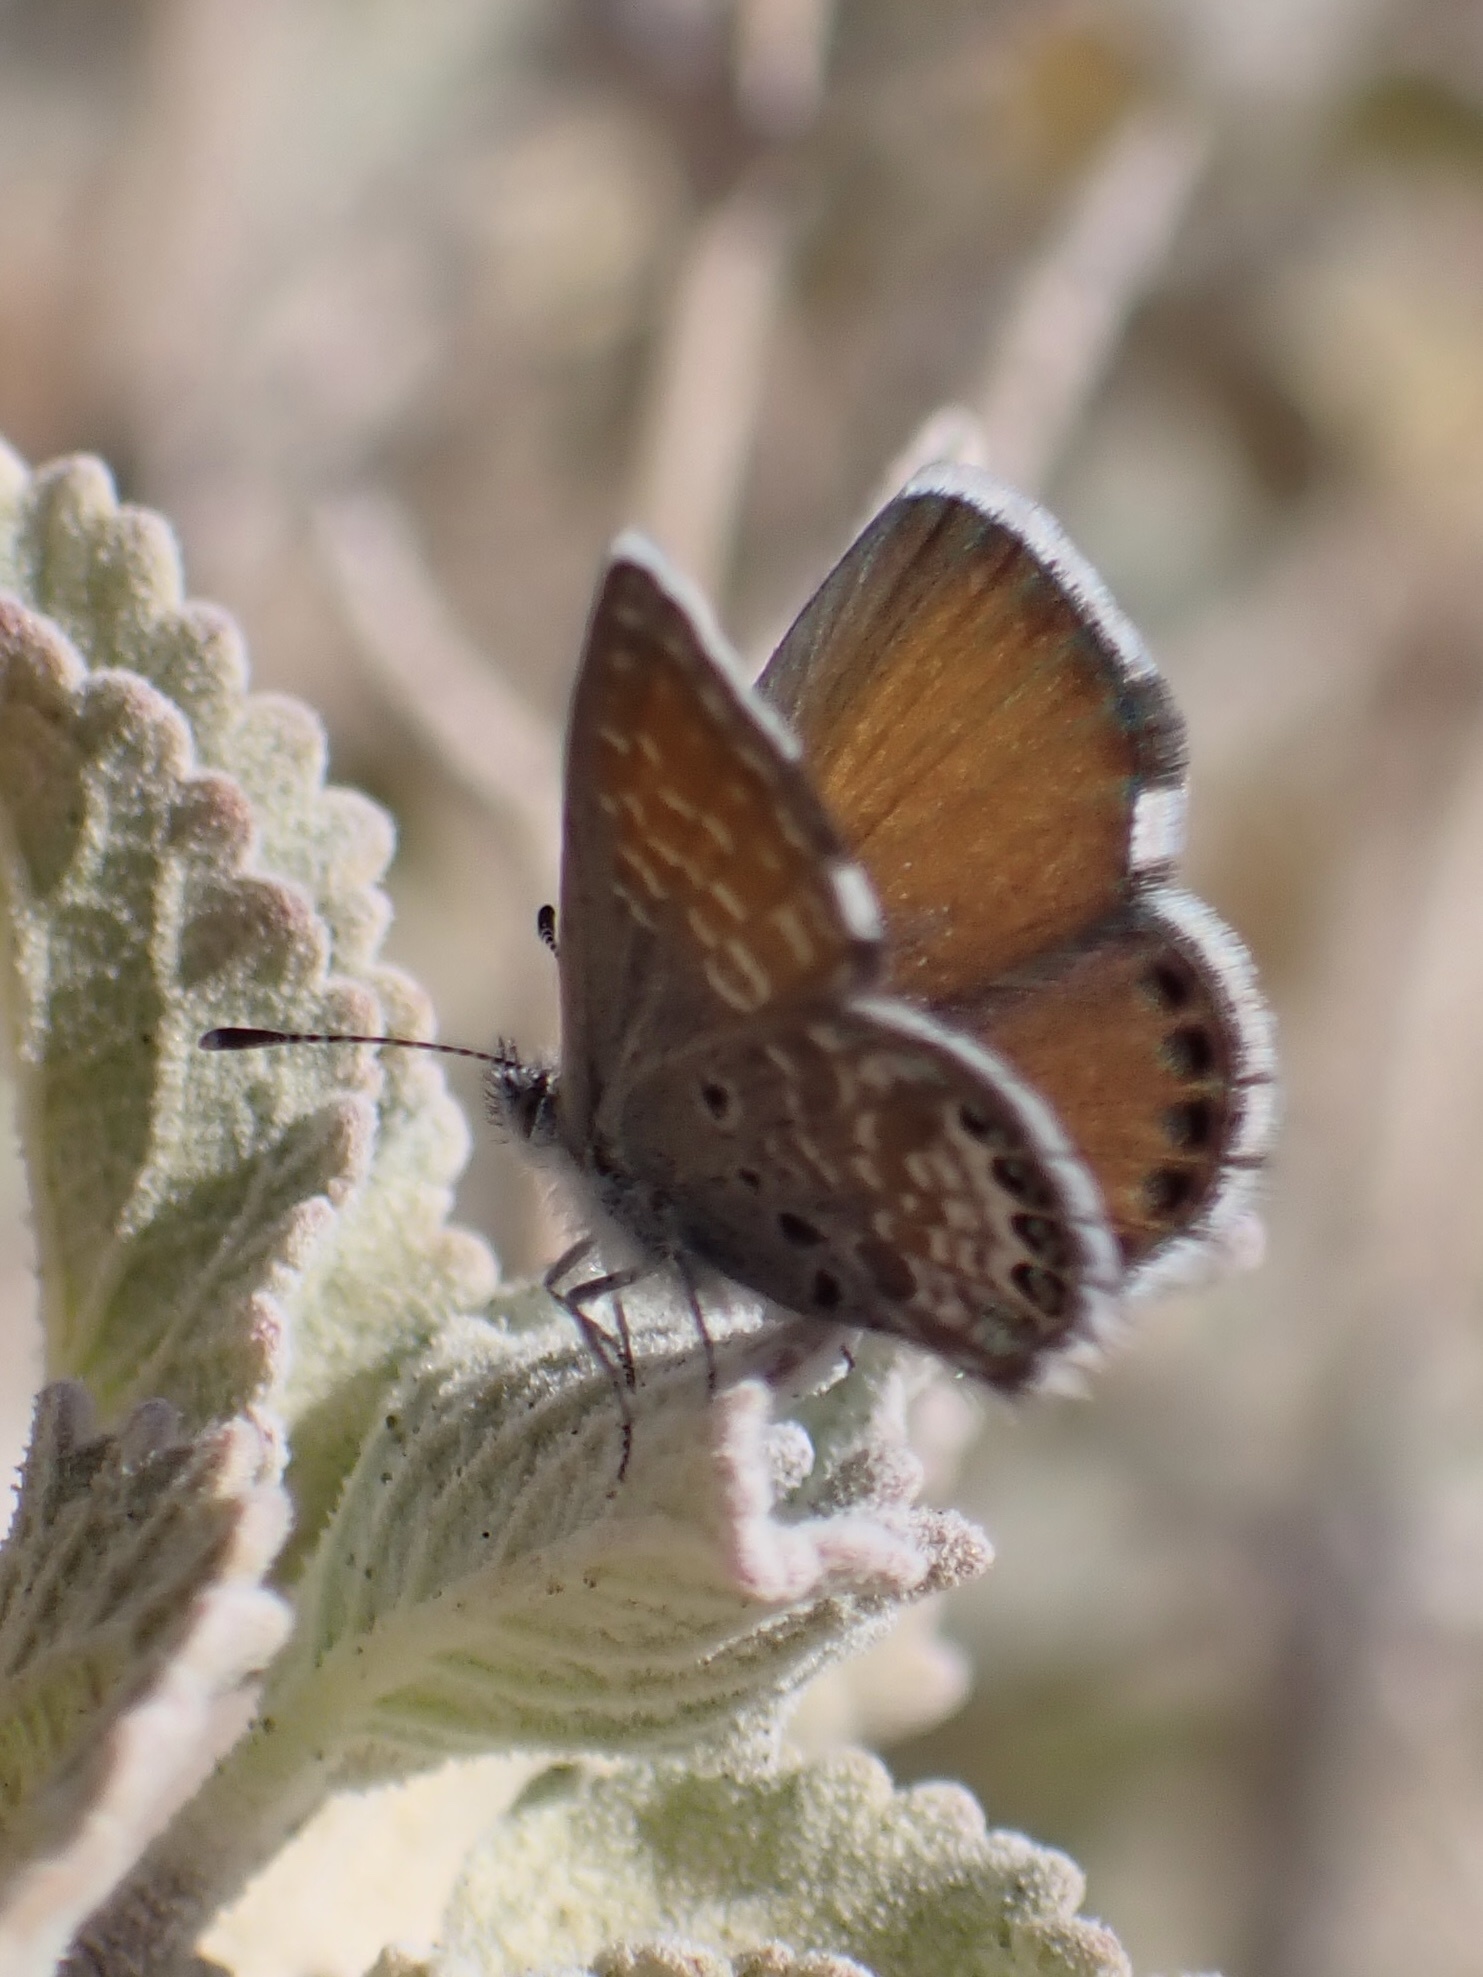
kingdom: Animalia
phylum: Arthropoda
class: Insecta
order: Lepidoptera
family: Lycaenidae
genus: Brephidium
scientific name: Brephidium exilis
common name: Pygmy blue
